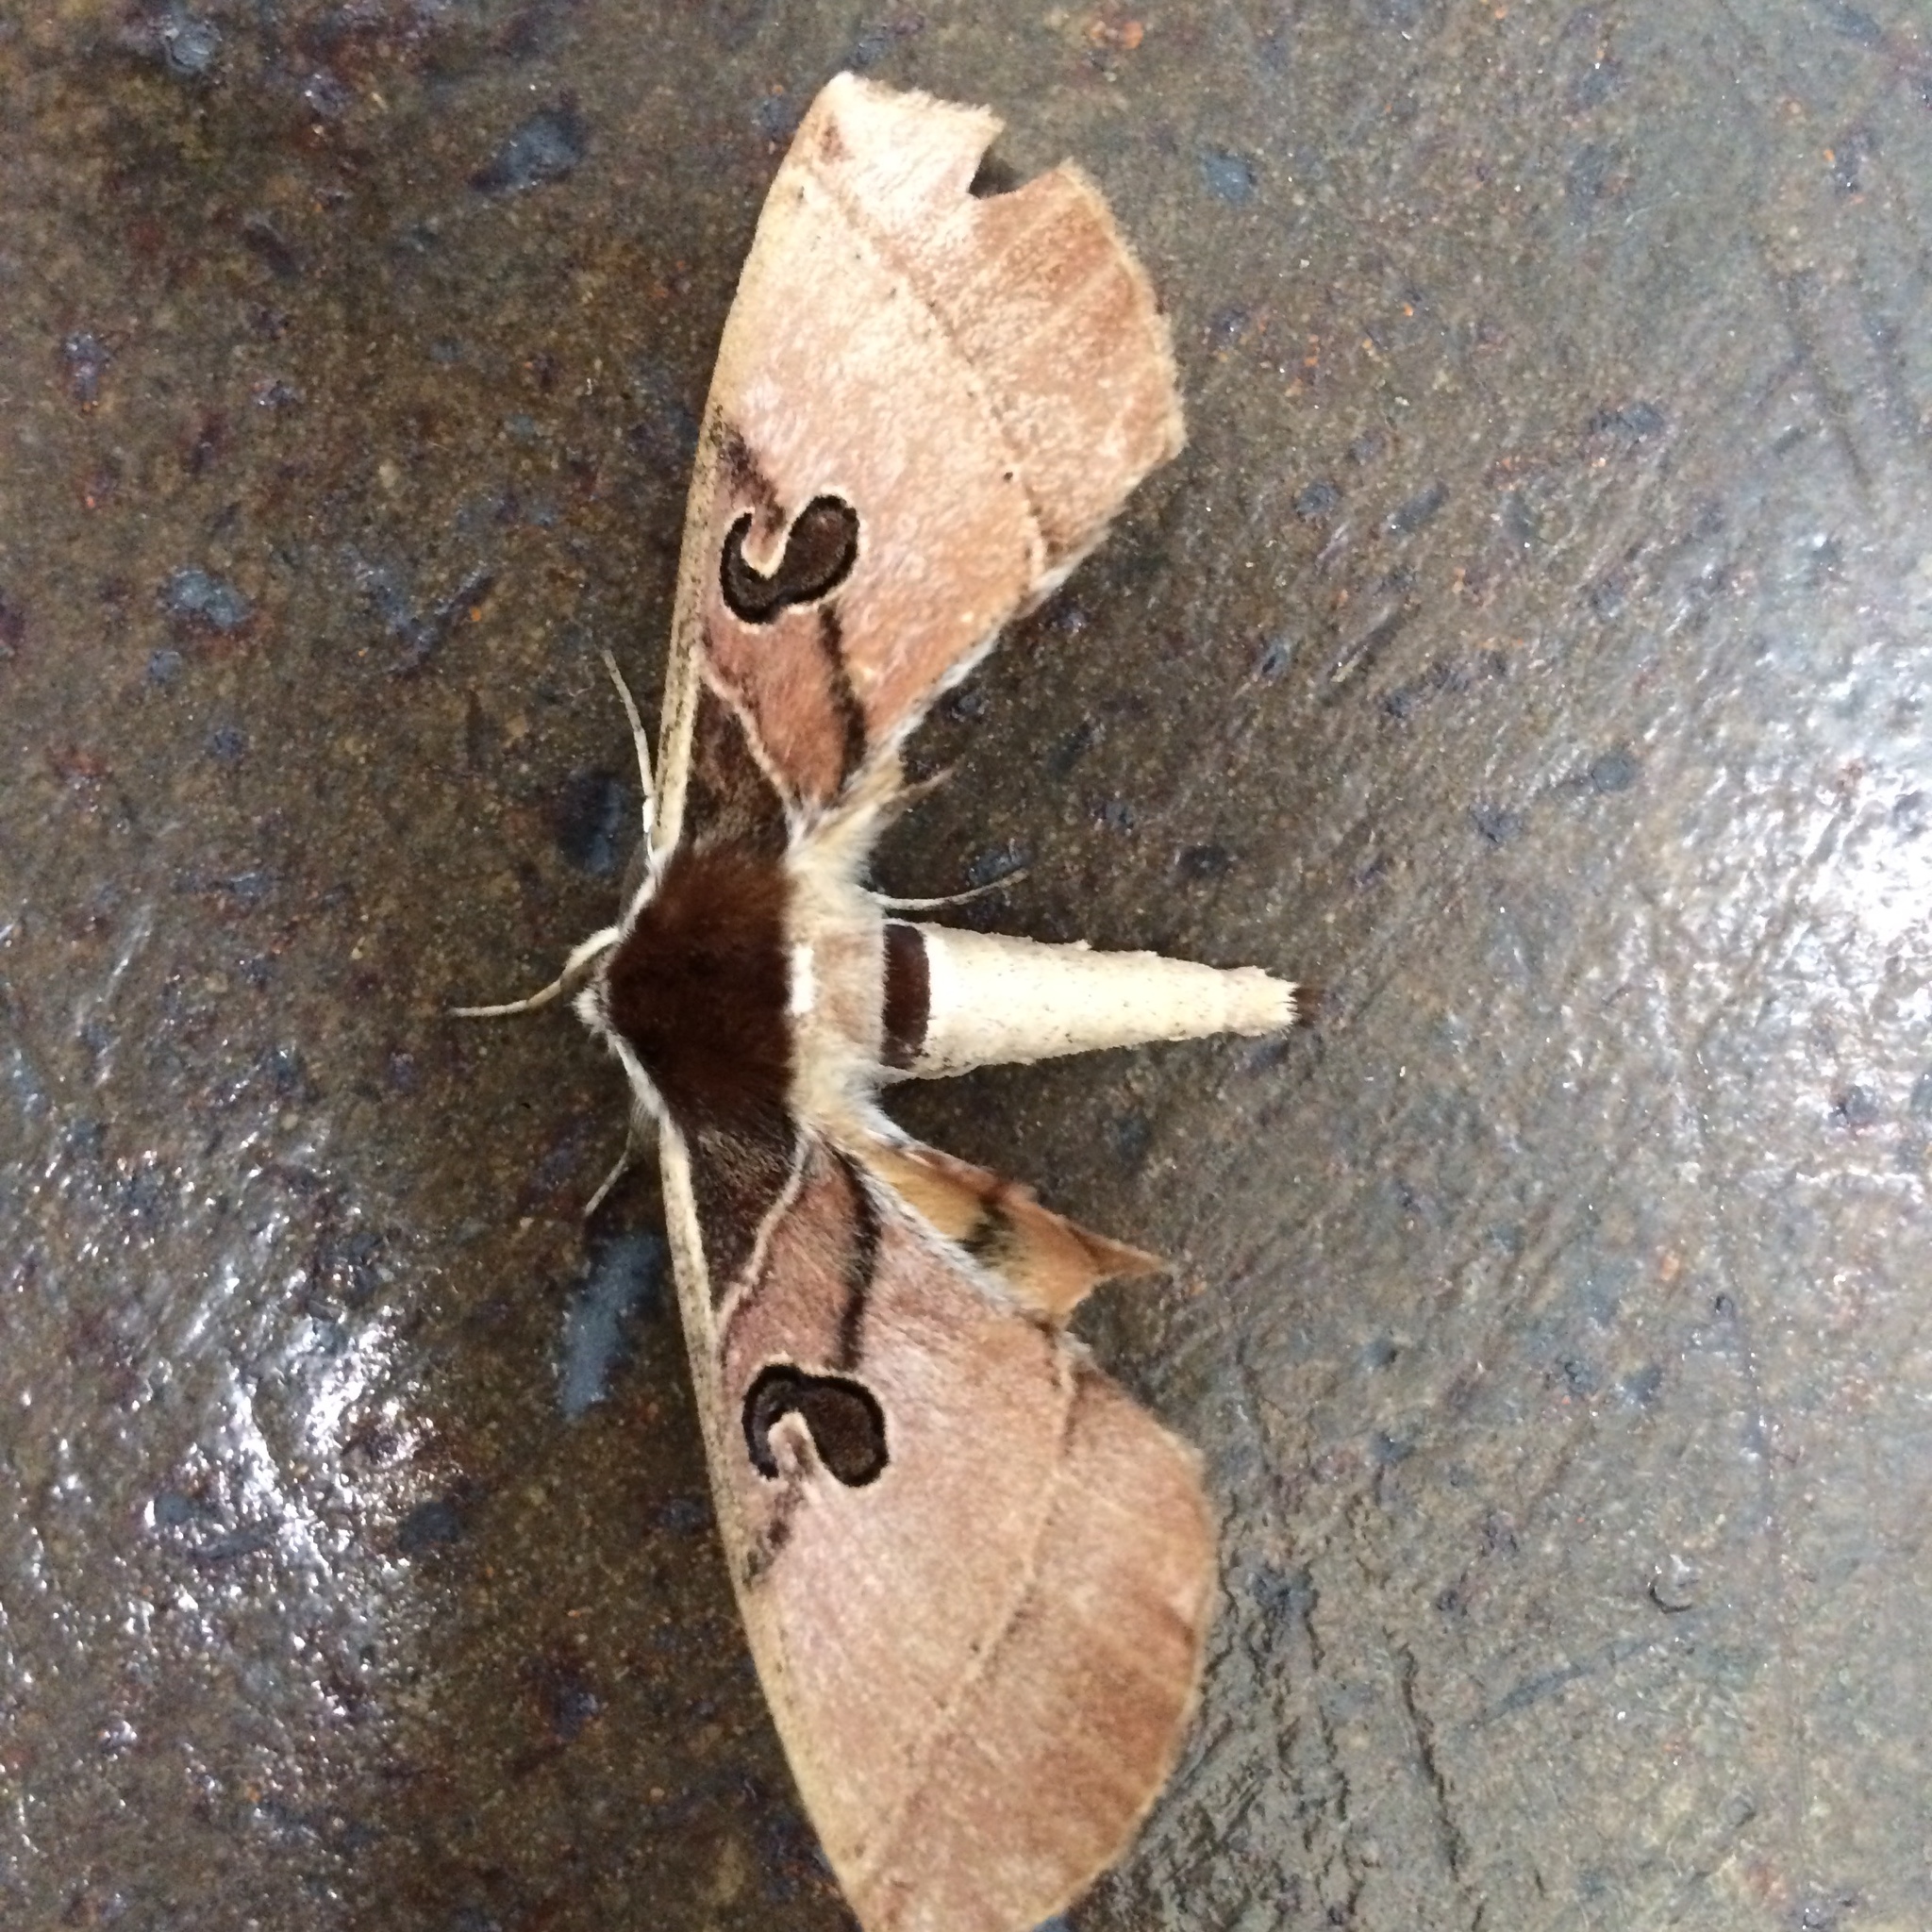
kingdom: Animalia
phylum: Arthropoda
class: Insecta
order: Lepidoptera
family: Brahmaeidae
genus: Spiramiopsis
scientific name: Spiramiopsis comma
